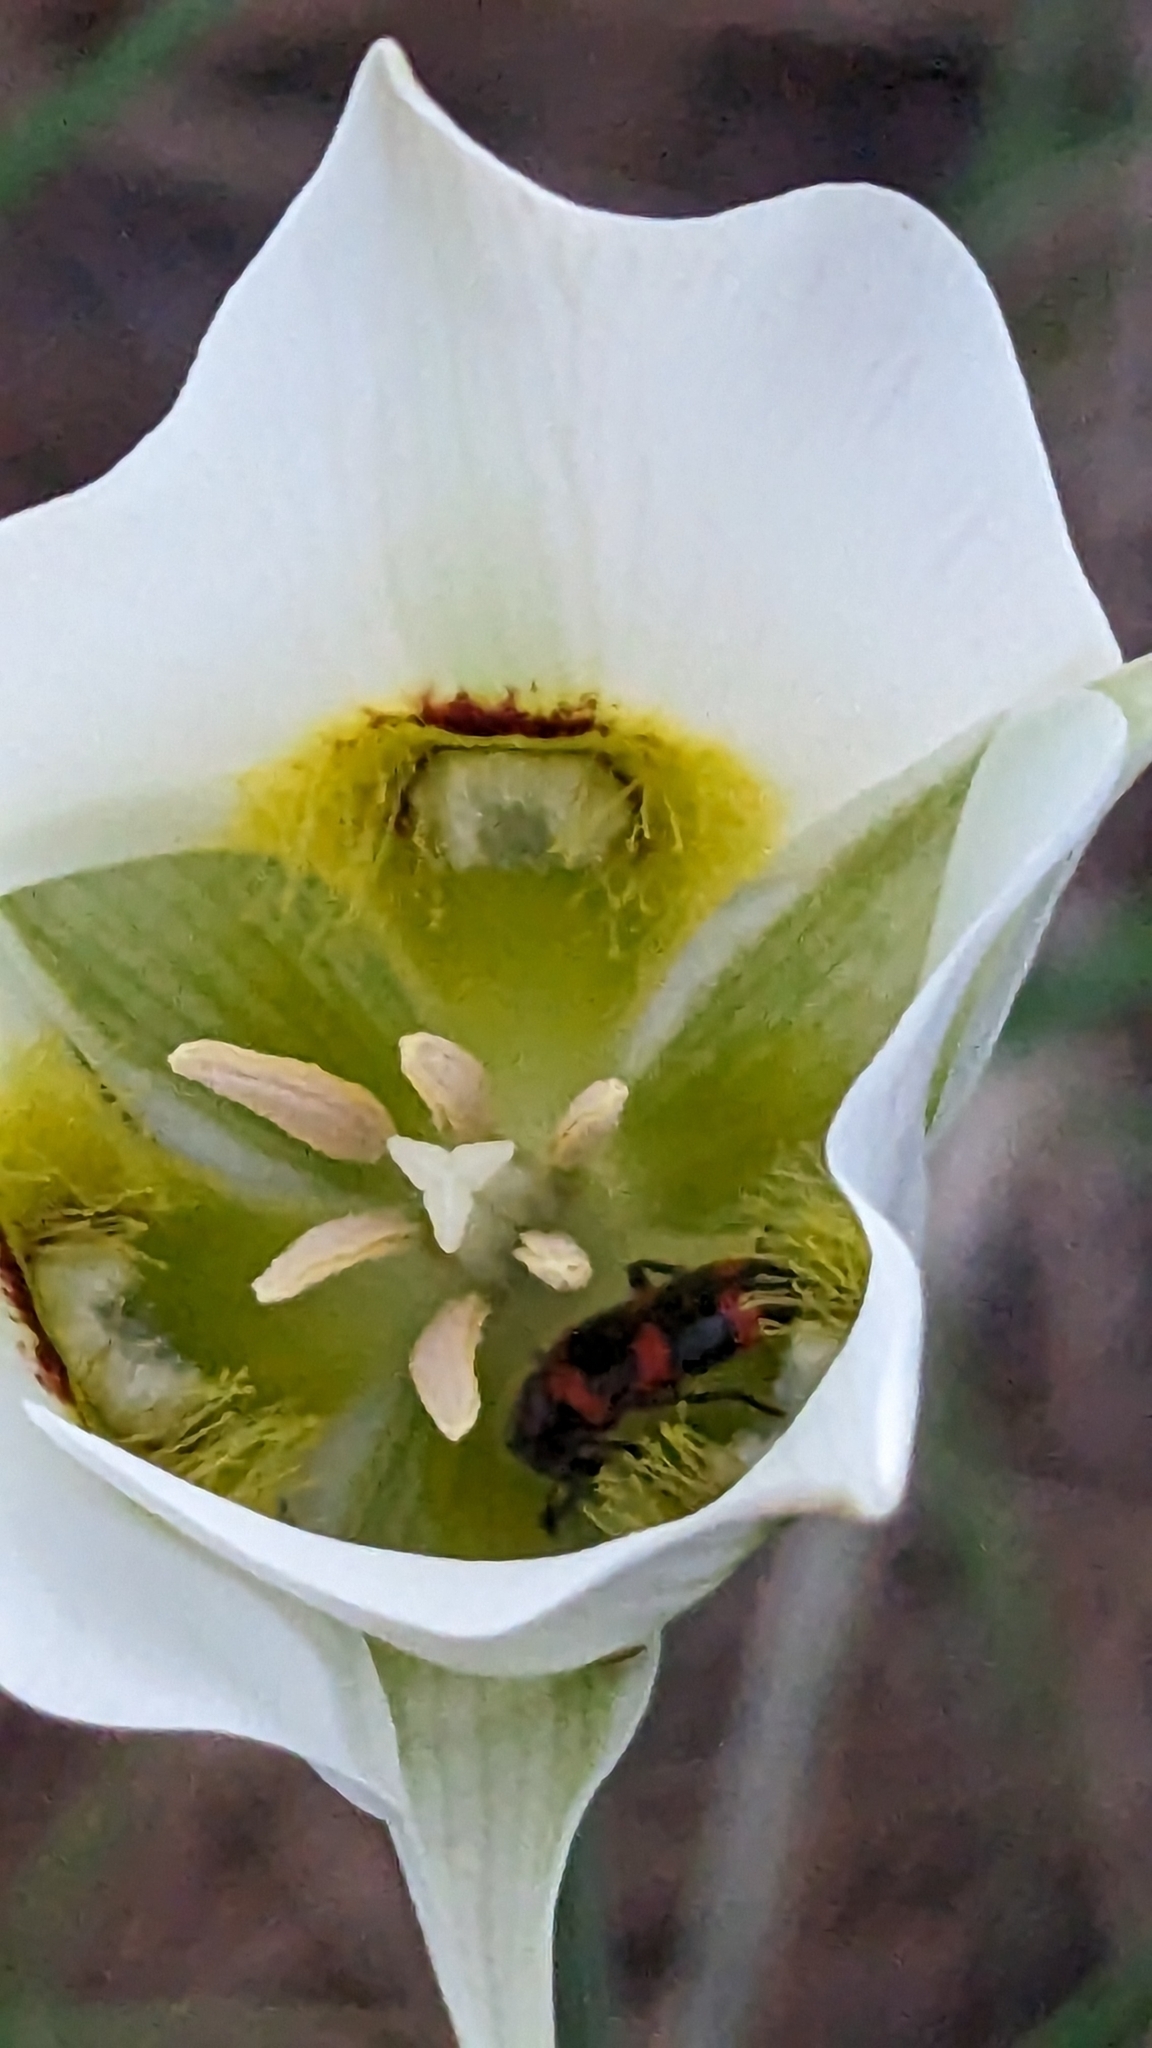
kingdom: Animalia
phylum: Arthropoda
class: Insecta
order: Coleoptera
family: Cleridae
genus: Trichodes
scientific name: Trichodes nutalli
